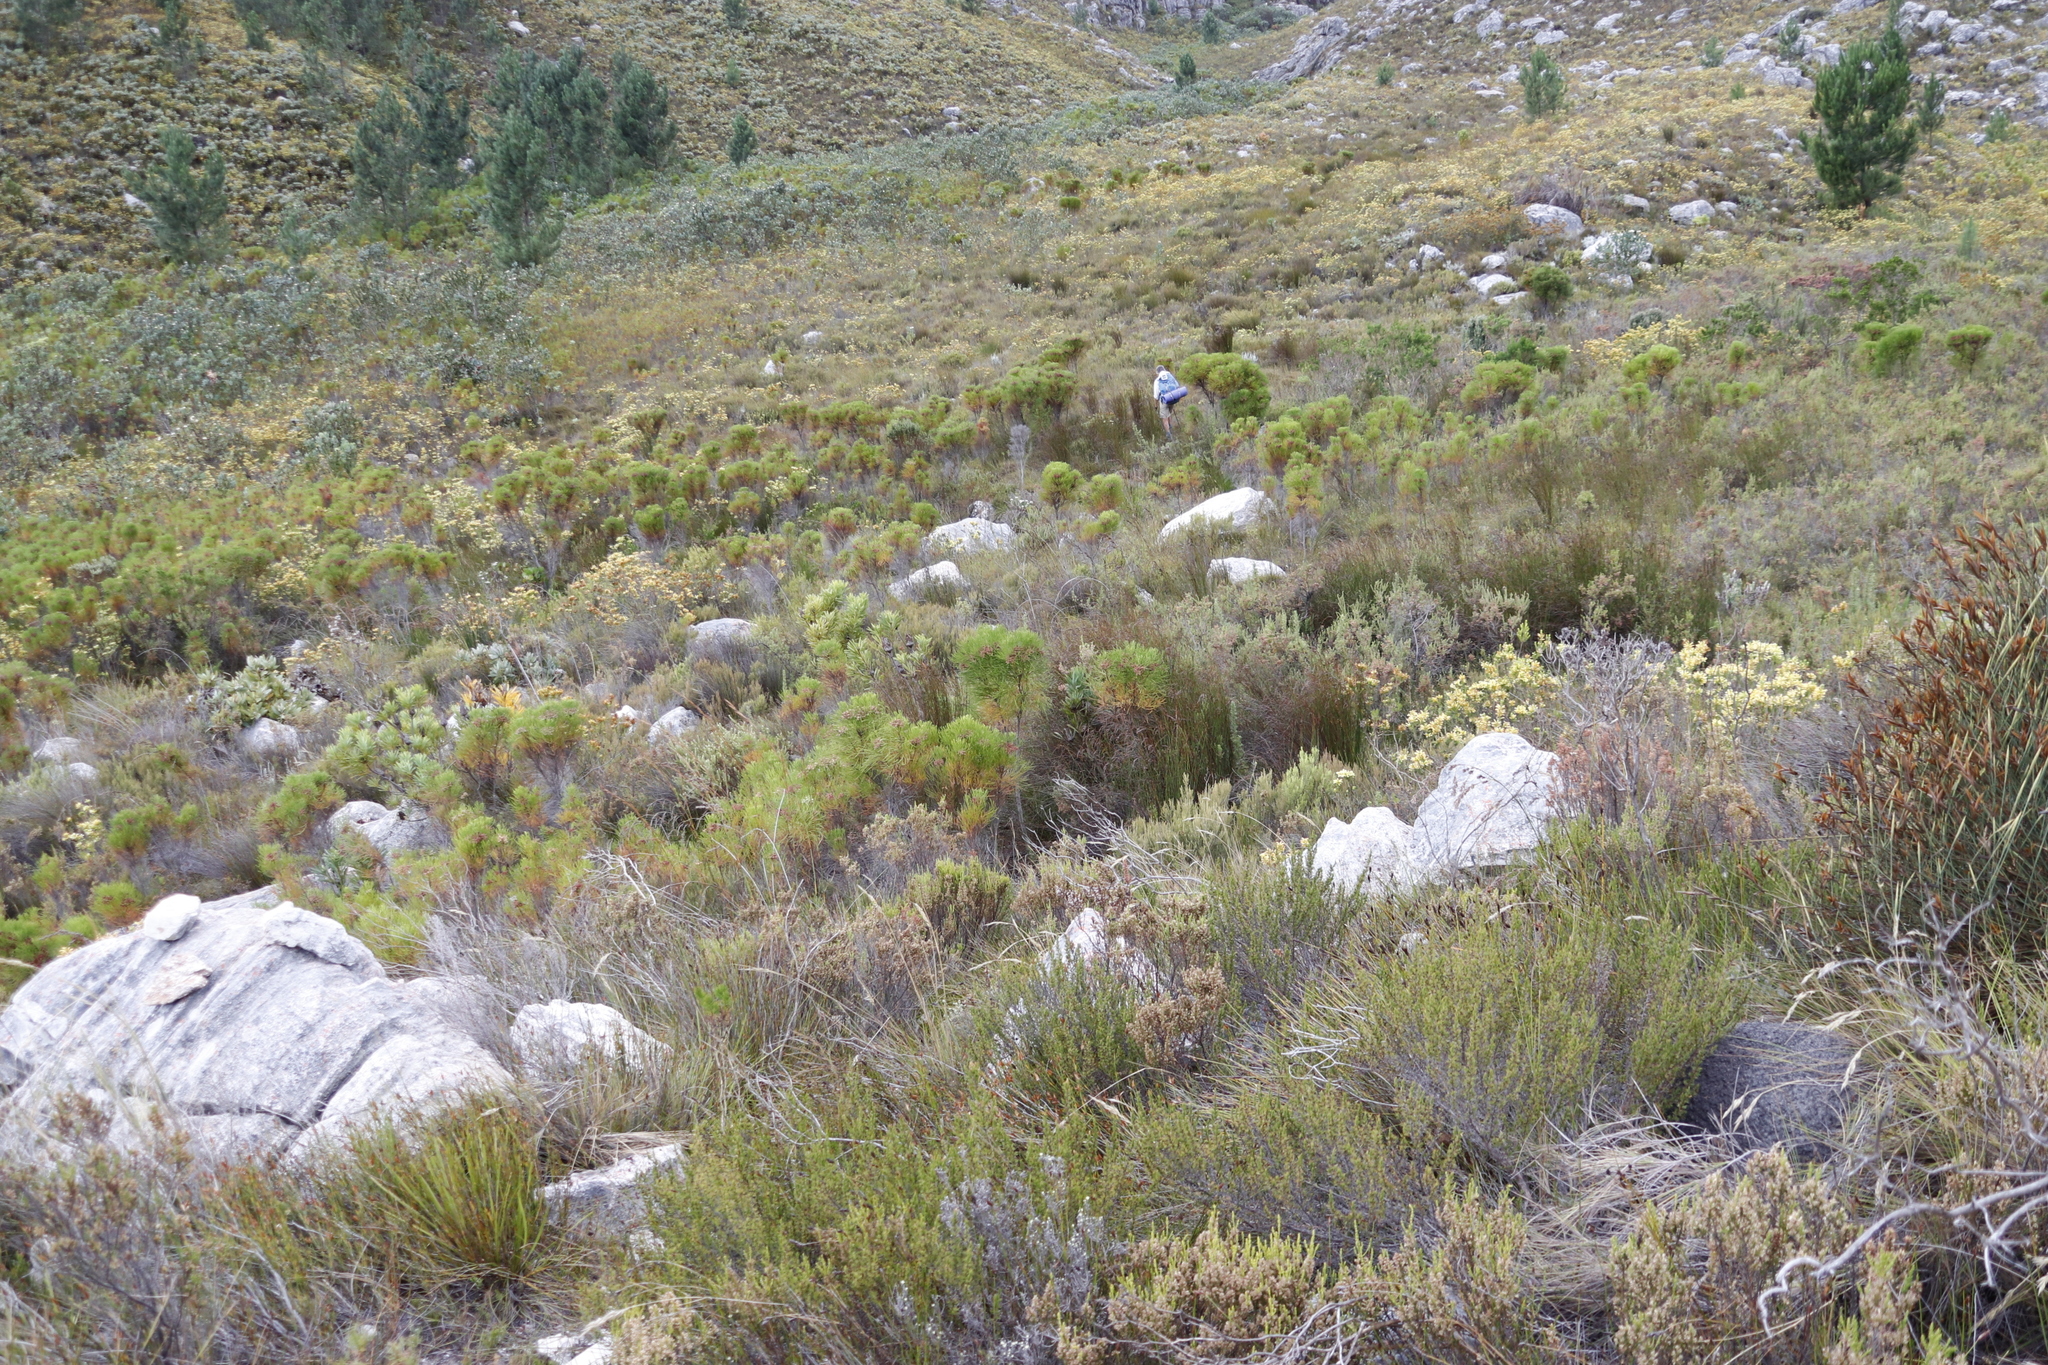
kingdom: Plantae
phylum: Tracheophyta
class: Magnoliopsida
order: Bruniales
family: Bruniaceae
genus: Berzelia
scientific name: Berzelia lanuginosa
